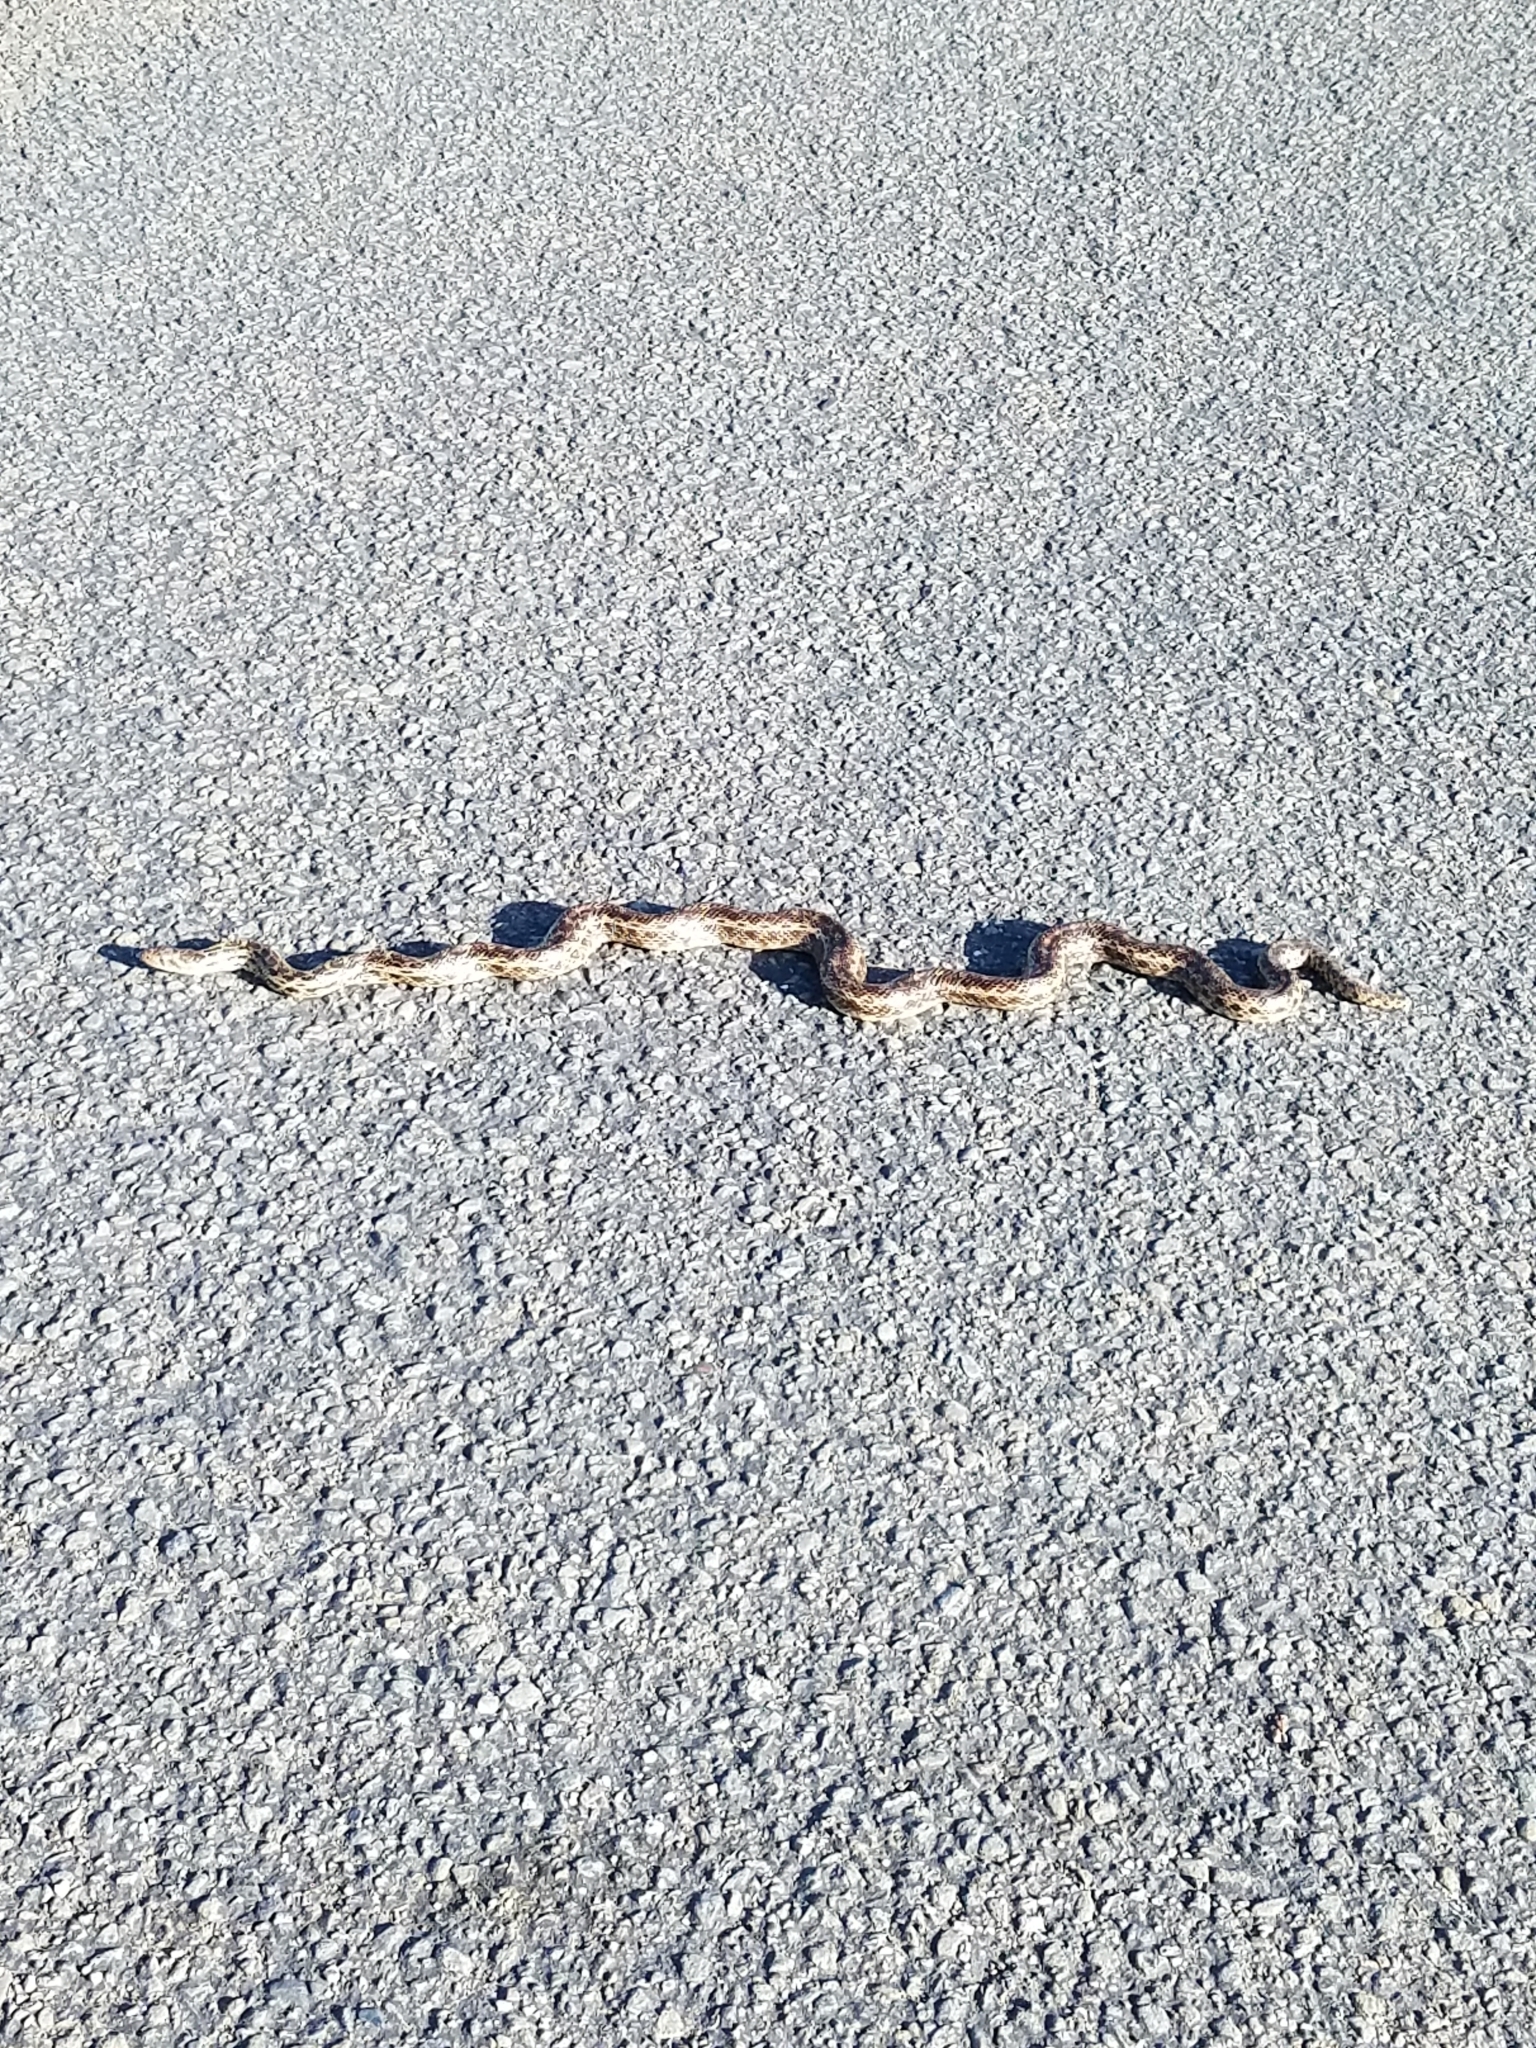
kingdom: Animalia
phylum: Chordata
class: Squamata
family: Colubridae
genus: Pituophis
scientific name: Pituophis catenifer
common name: Gopher snake
